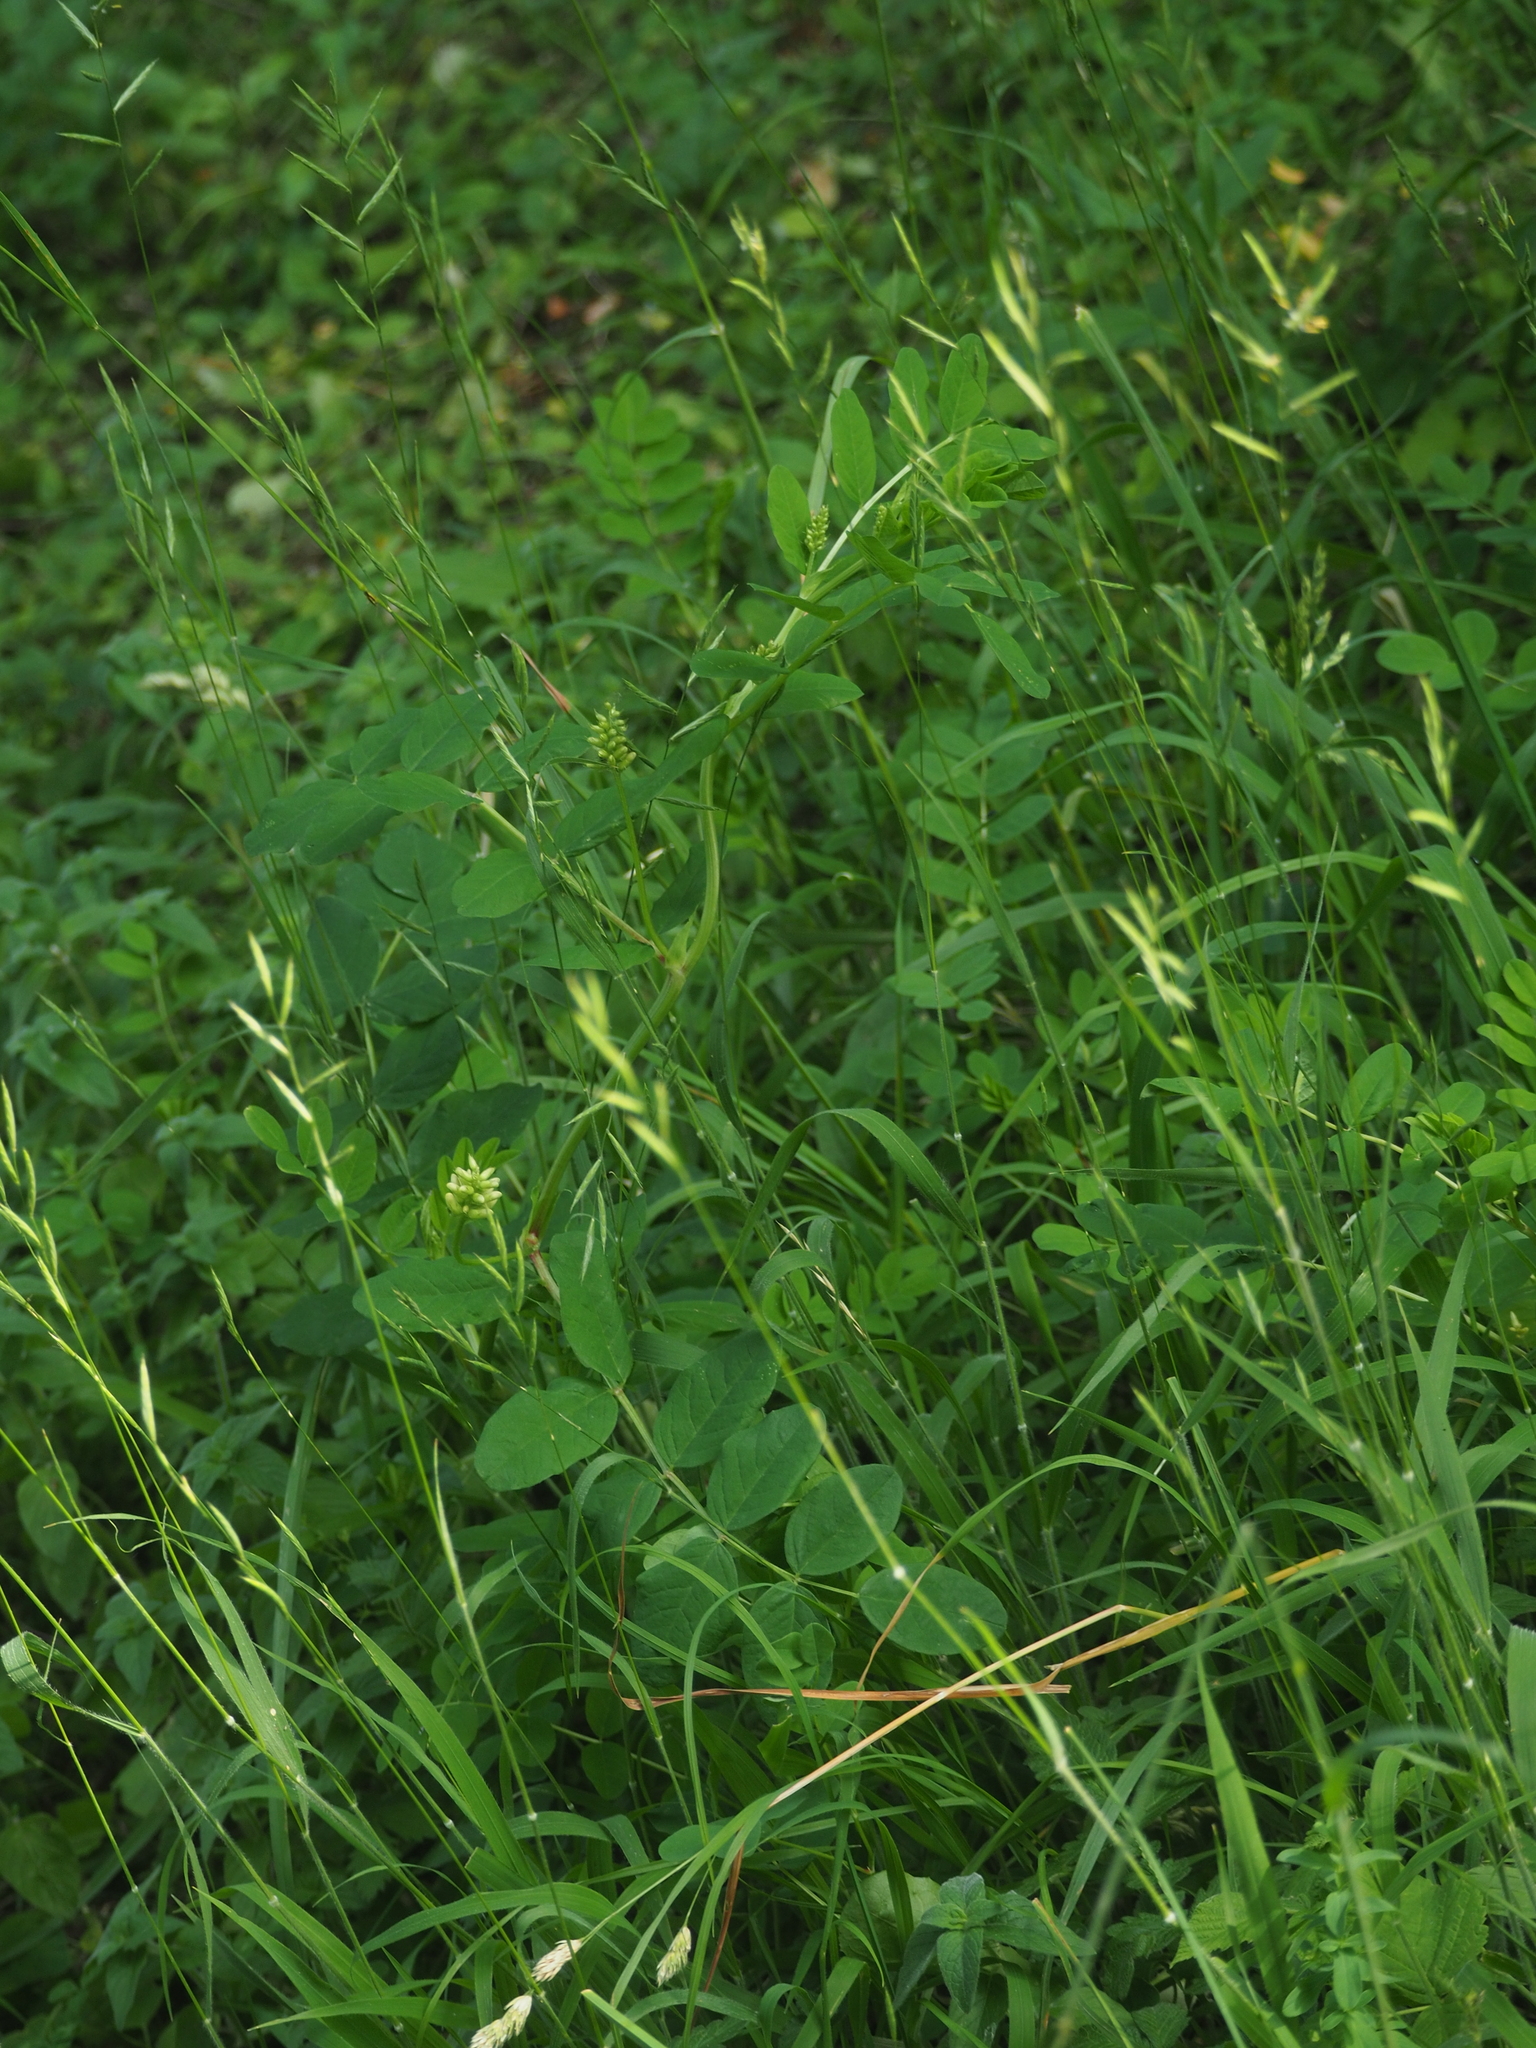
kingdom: Plantae
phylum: Tracheophyta
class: Magnoliopsida
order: Fabales
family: Fabaceae
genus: Astragalus
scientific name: Astragalus glycyphyllos
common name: Wild liquorice
